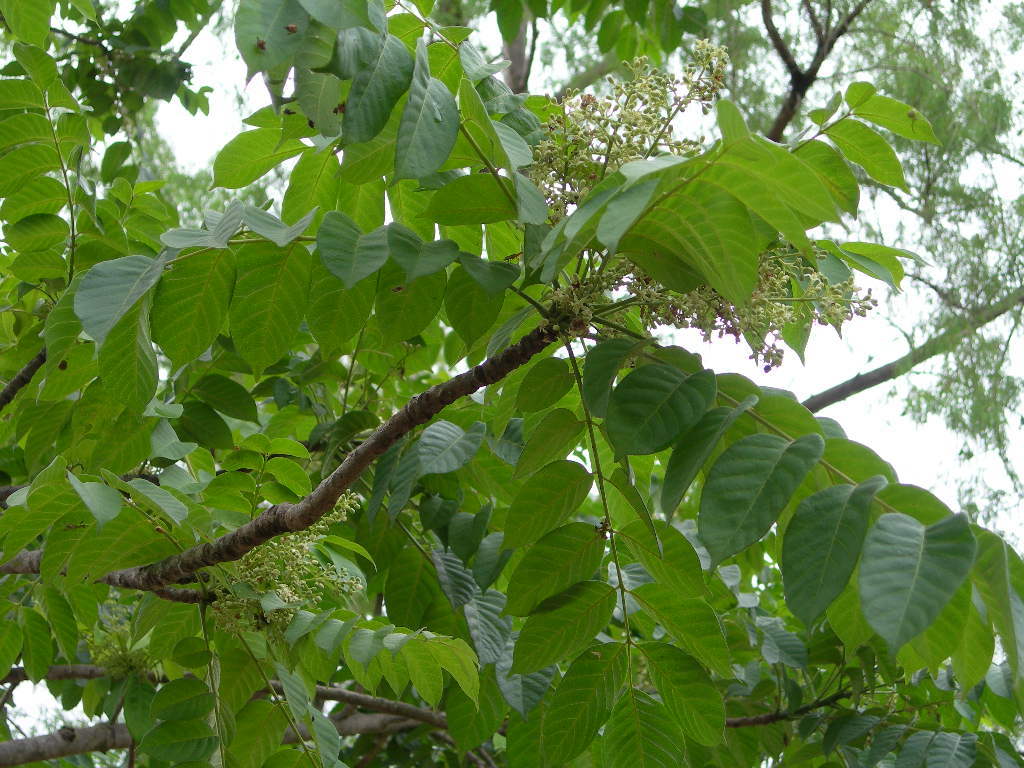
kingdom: Plantae
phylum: Tracheophyta
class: Magnoliopsida
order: Sapindales
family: Meliaceae
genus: Cedrela
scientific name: Cedrela salvadorensis
